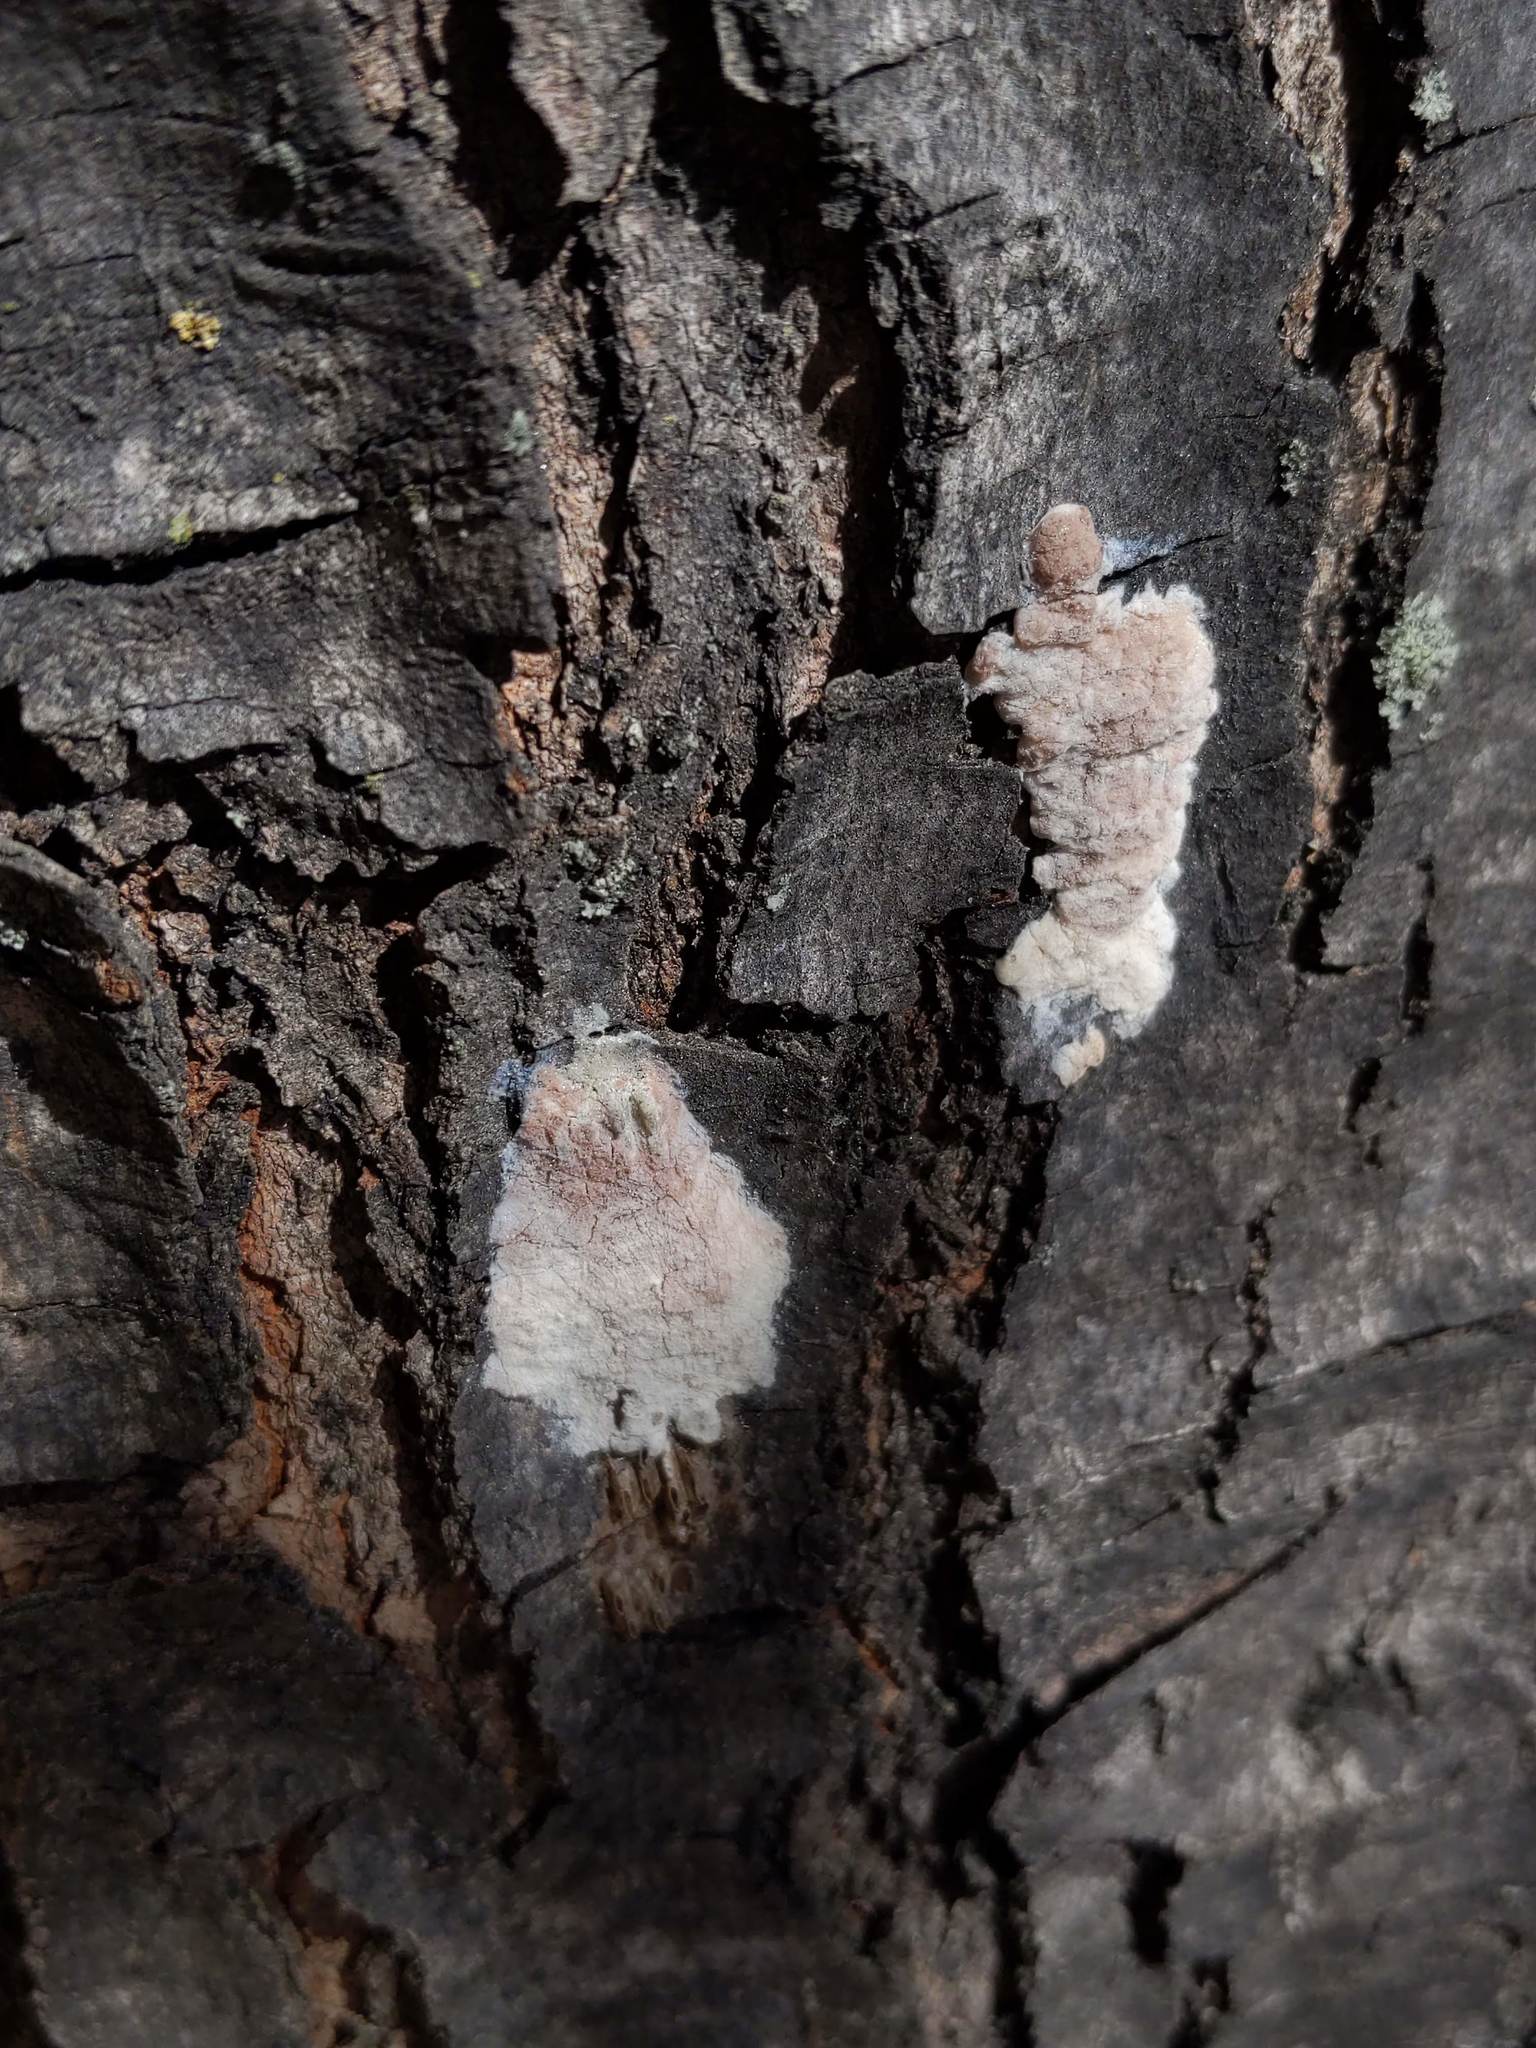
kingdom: Animalia
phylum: Arthropoda
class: Insecta
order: Hemiptera
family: Fulgoridae
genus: Lycorma
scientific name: Lycorma delicatula
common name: Spotted lanternfly
